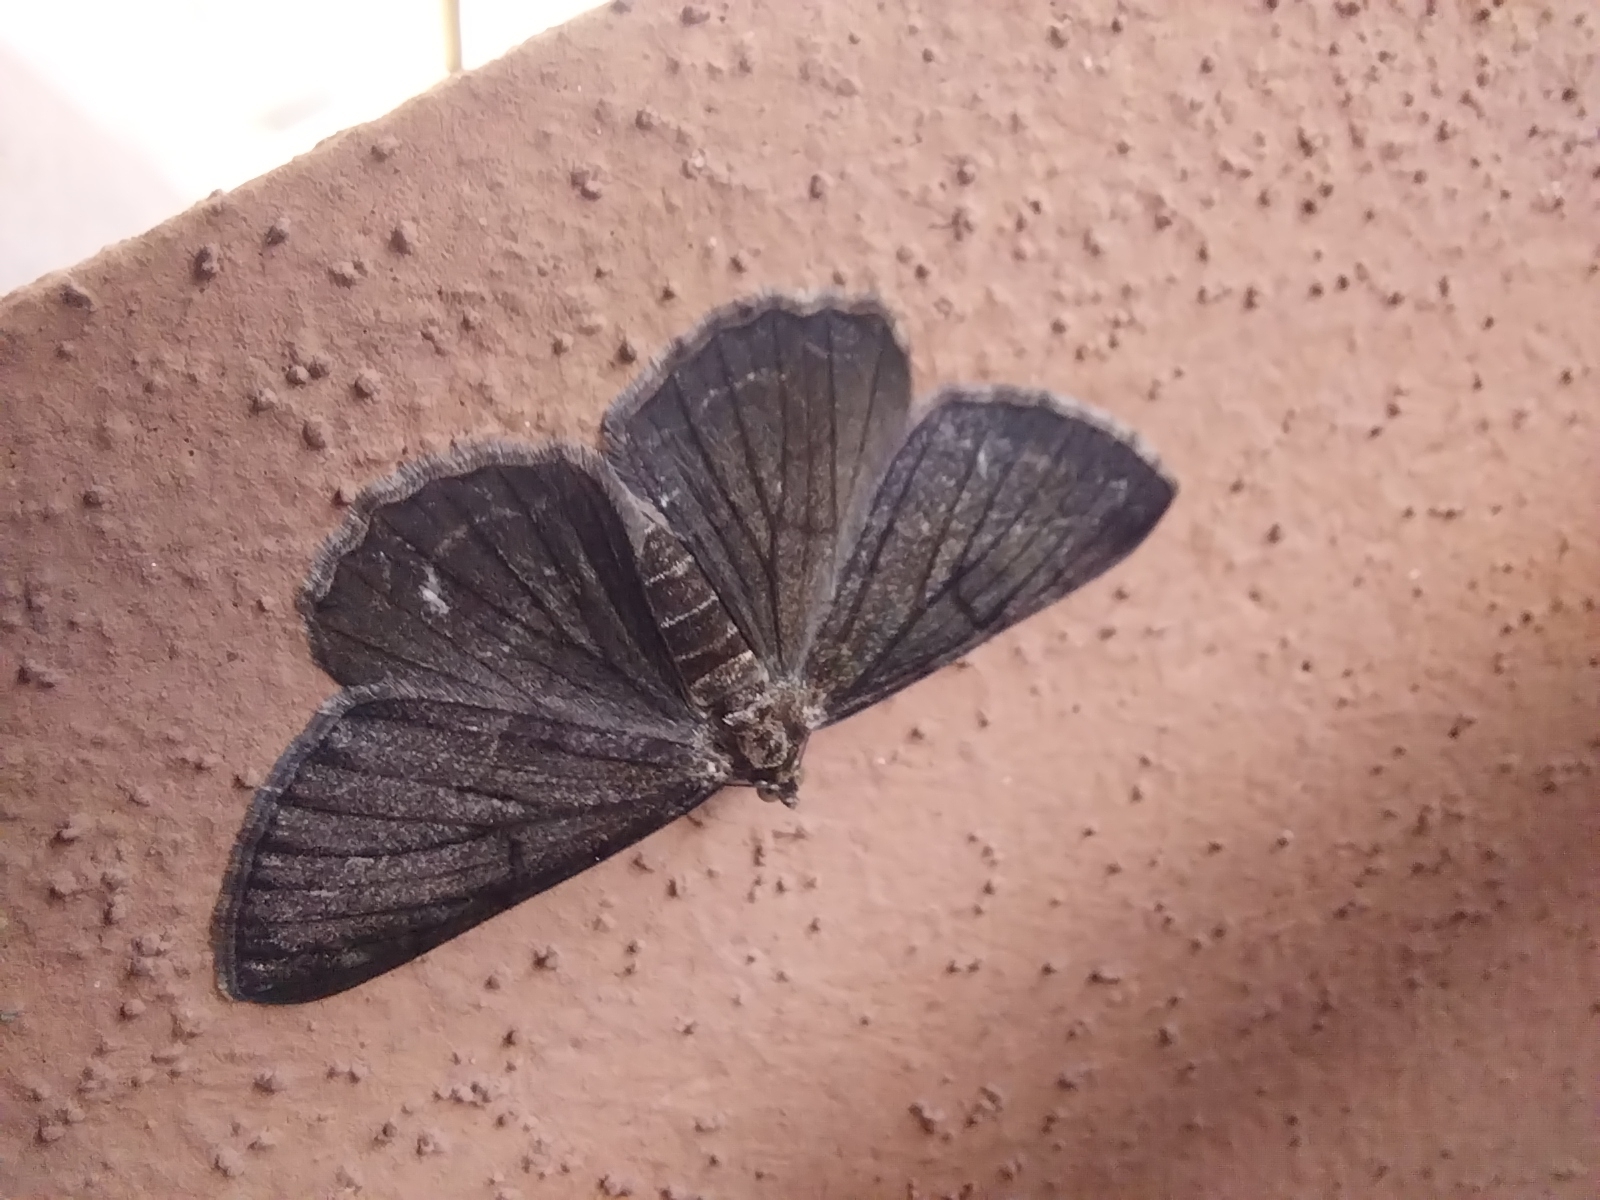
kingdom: Animalia
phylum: Arthropoda
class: Insecta
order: Lepidoptera
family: Geometridae
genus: Peribatodes
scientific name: Peribatodes rhomboidaria
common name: Willow beauty
